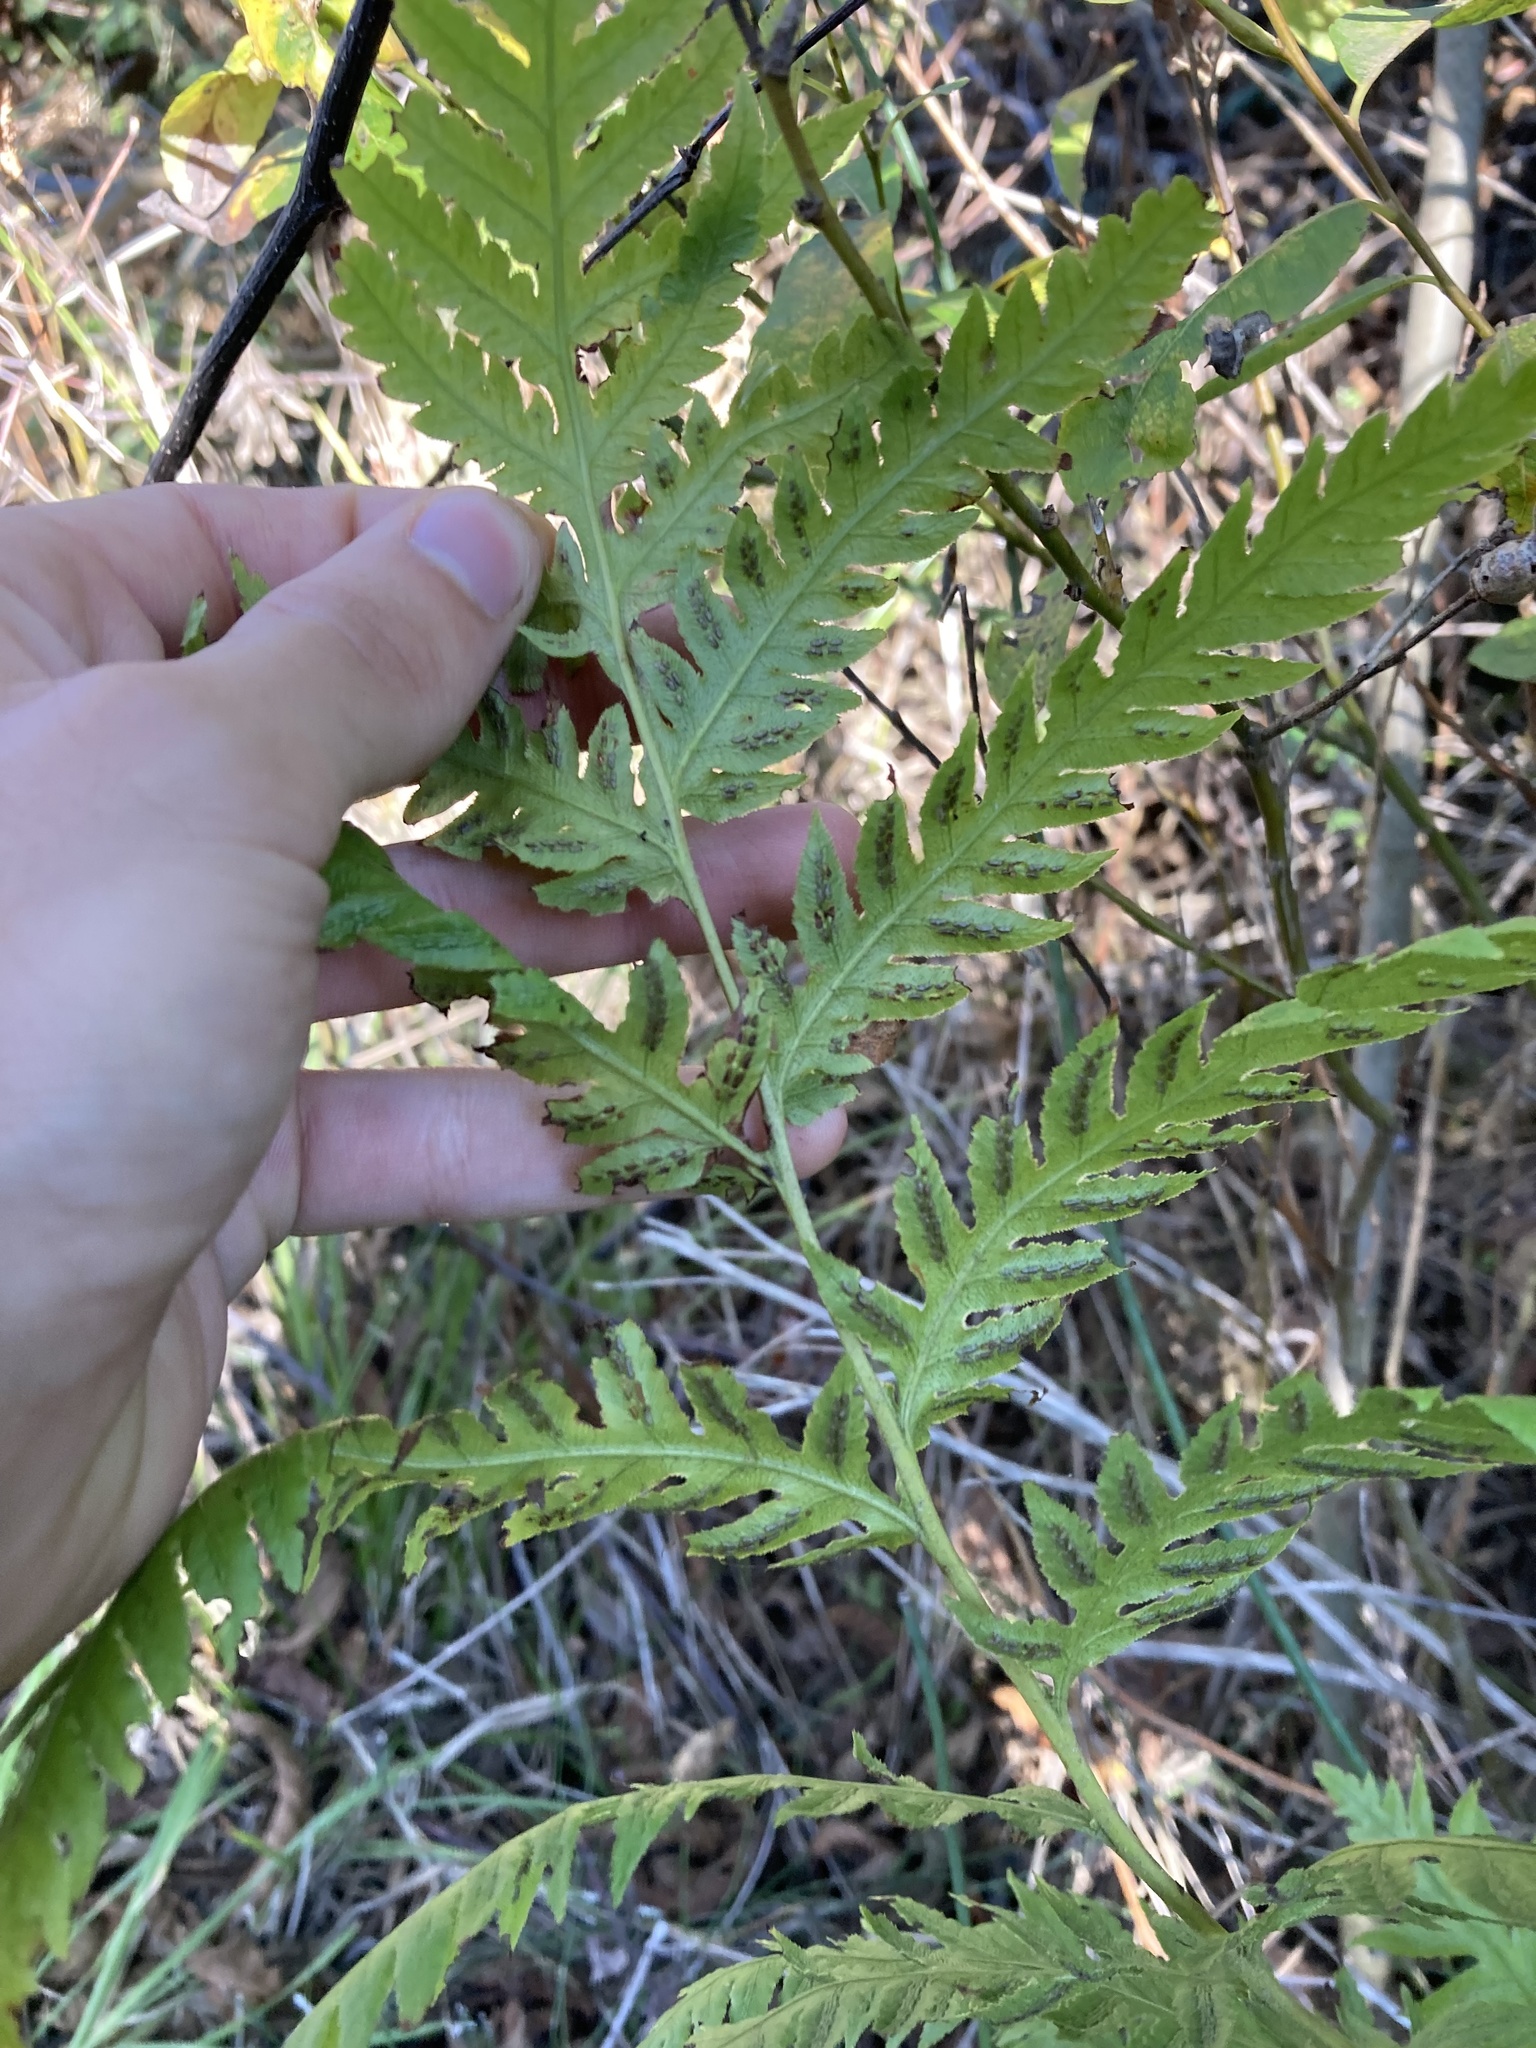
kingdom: Plantae
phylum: Tracheophyta
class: Polypodiopsida
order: Polypodiales
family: Blechnaceae
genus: Woodwardia
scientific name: Woodwardia fimbriata
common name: Giant chain fern
